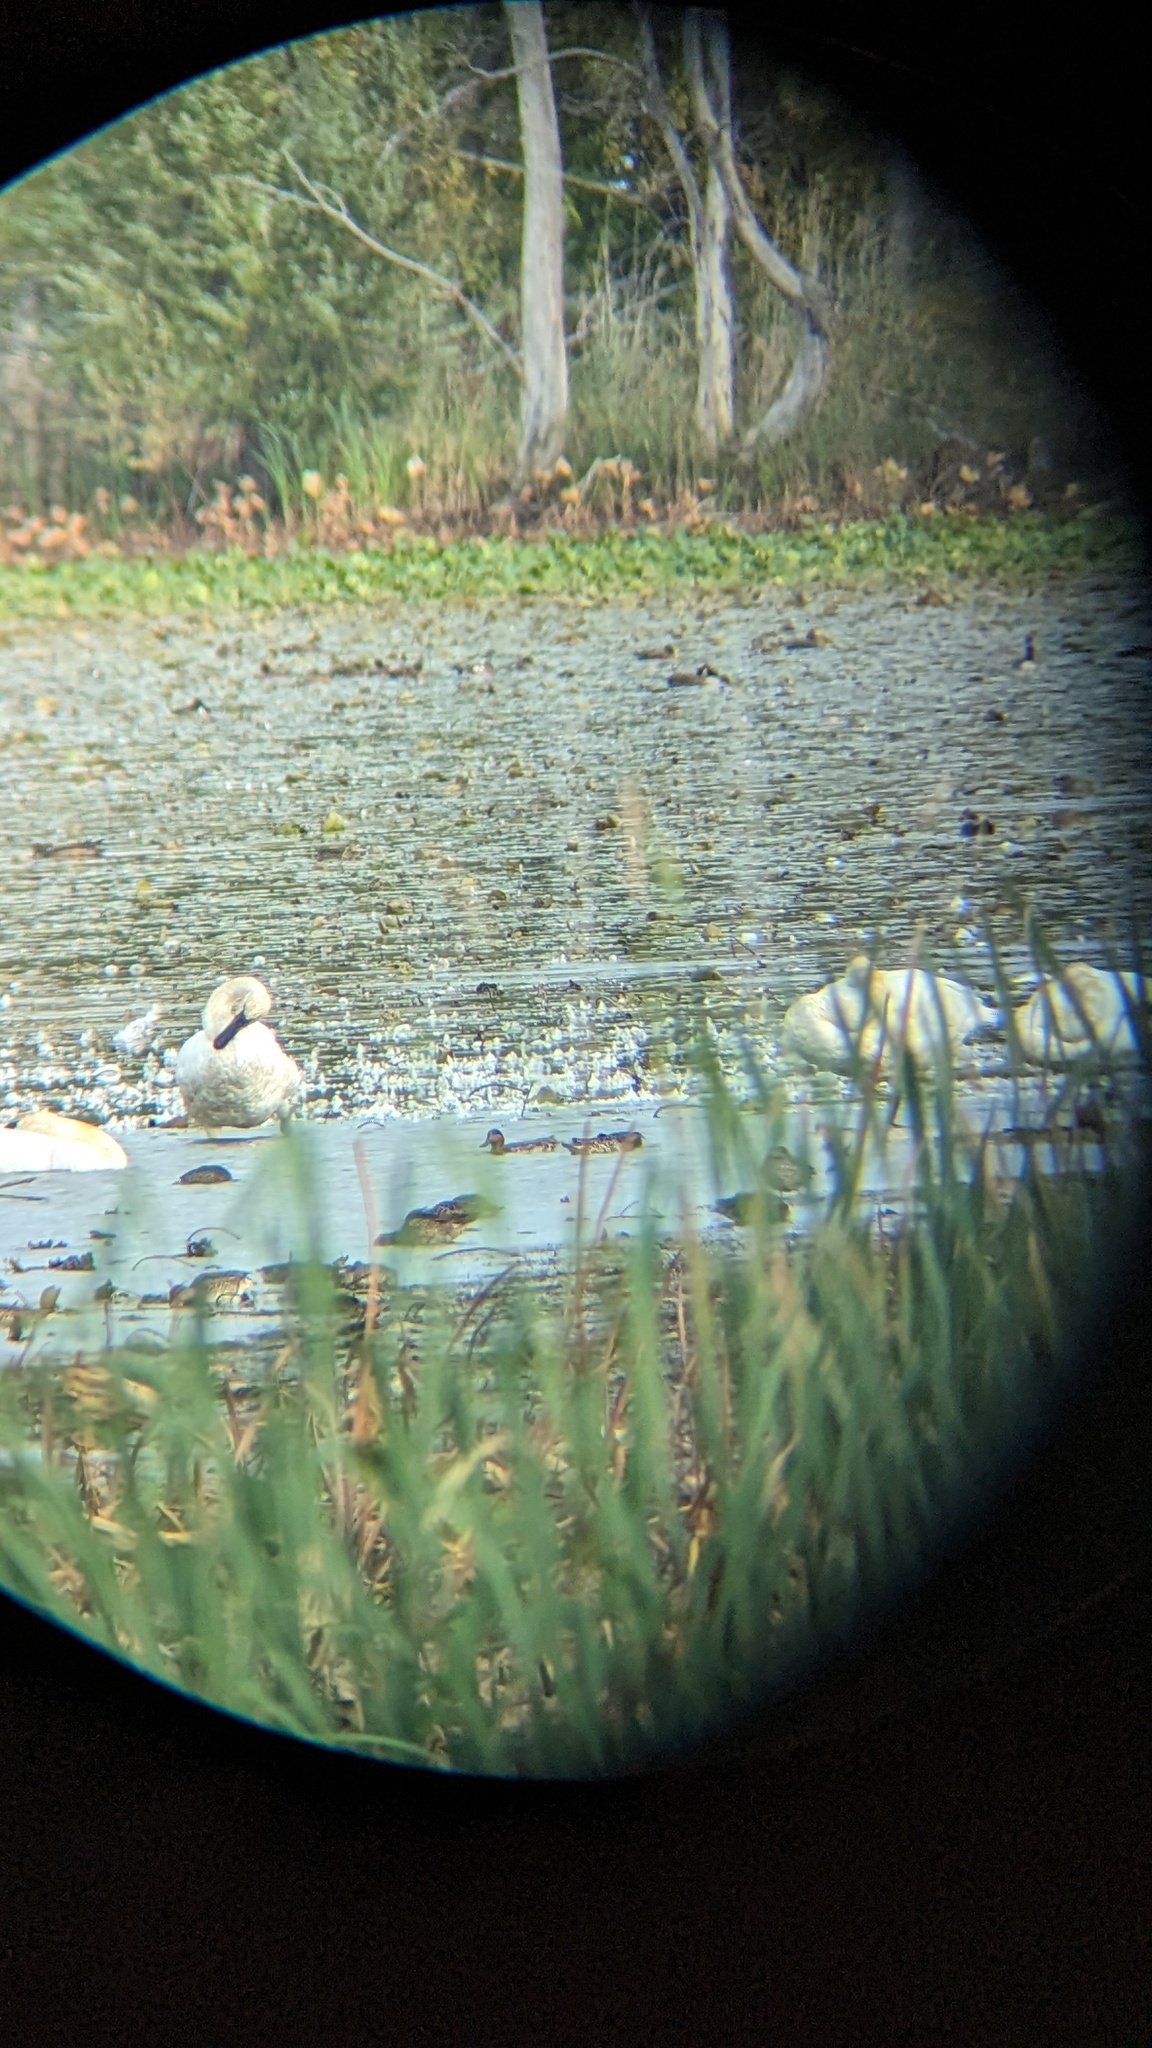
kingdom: Animalia
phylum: Chordata
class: Aves
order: Anseriformes
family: Anatidae
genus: Cygnus
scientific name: Cygnus buccinator
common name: Trumpeter swan
